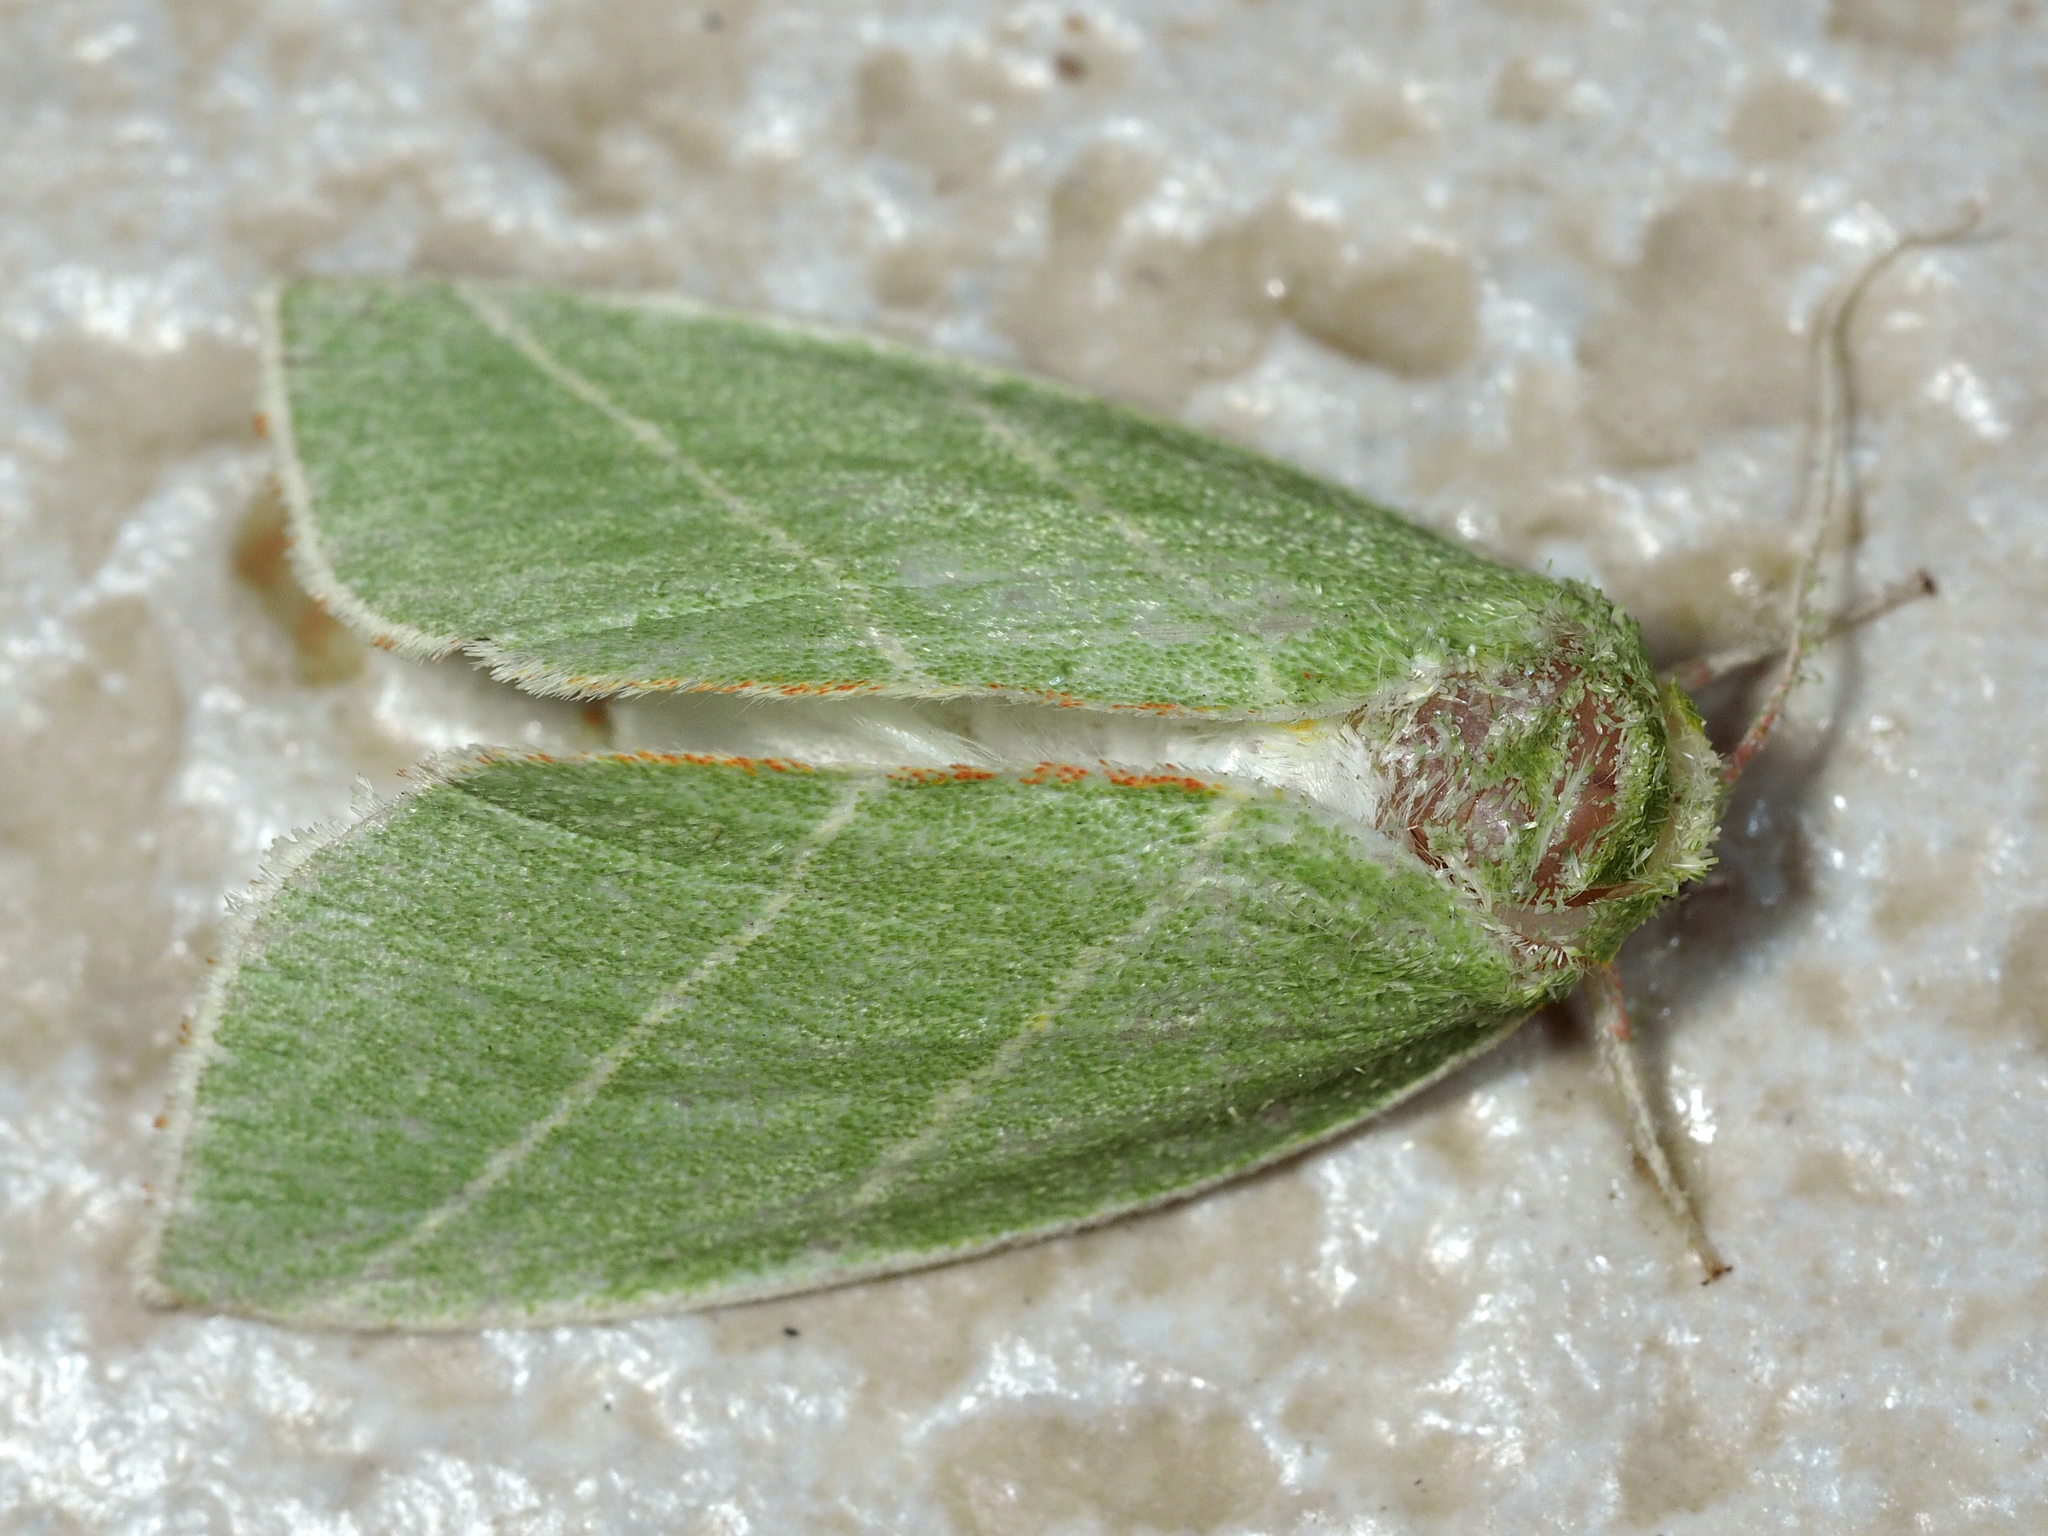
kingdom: Animalia
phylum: Arthropoda
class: Insecta
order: Lepidoptera
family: Nolidae
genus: Bena
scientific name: Bena bicolorana
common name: Scarce silver-lines
